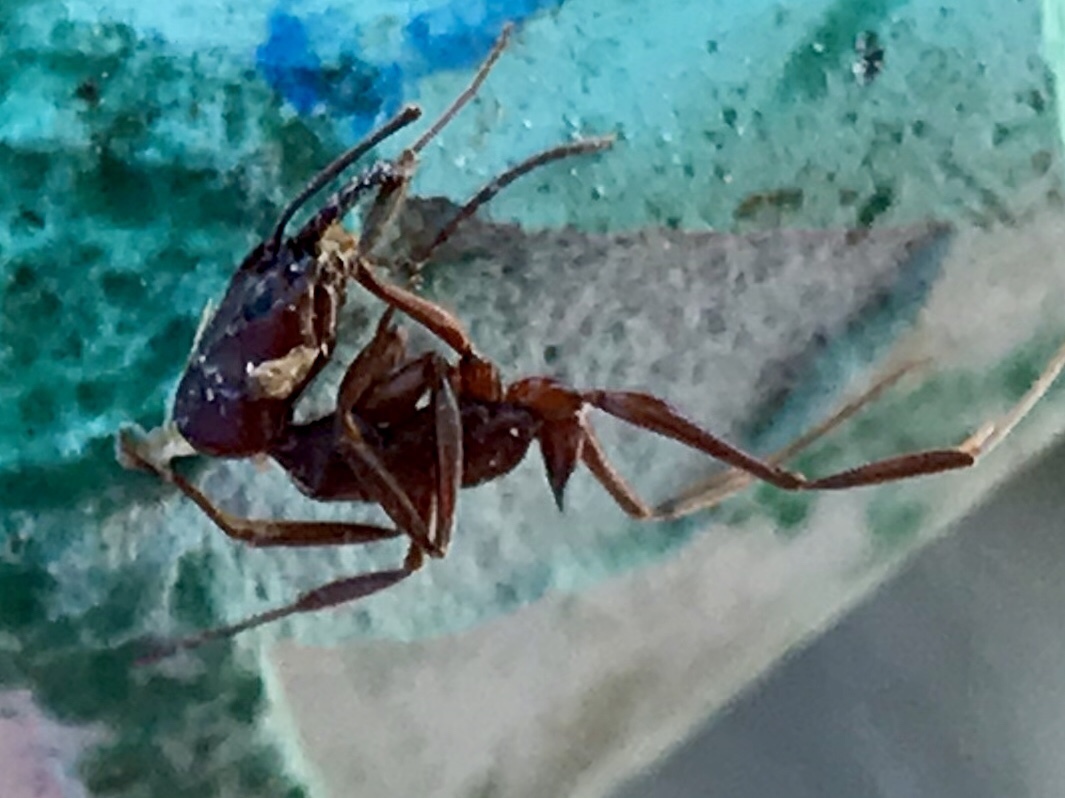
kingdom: Animalia
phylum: Arthropoda
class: Insecta
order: Hymenoptera
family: Formicidae
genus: Odontomachus
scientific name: Odontomachus
